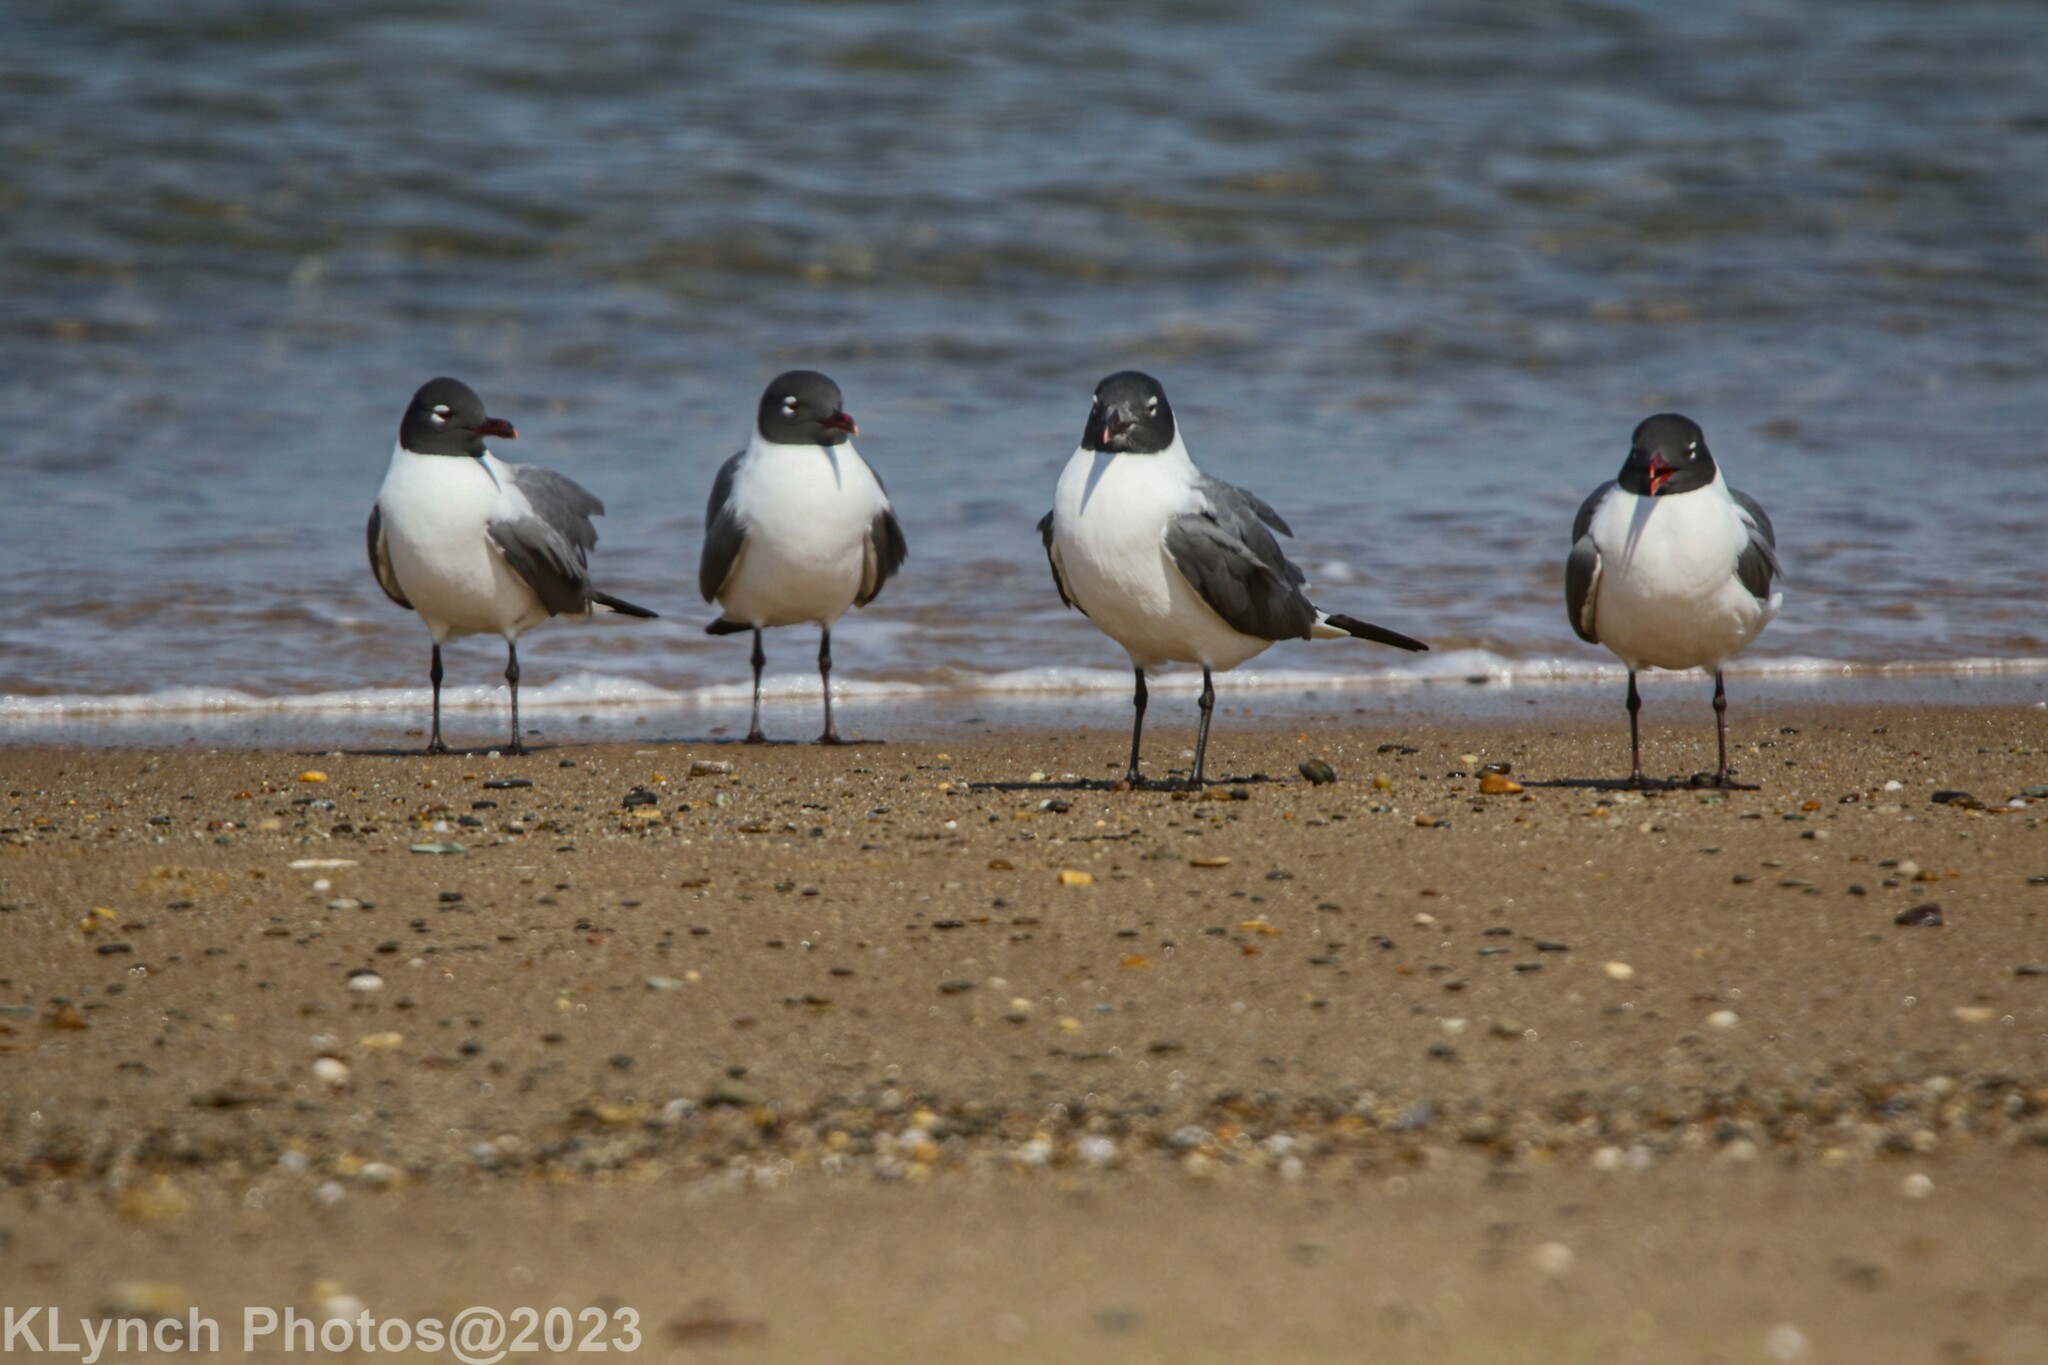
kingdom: Animalia
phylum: Chordata
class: Aves
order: Charadriiformes
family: Laridae
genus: Leucophaeus
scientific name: Leucophaeus atricilla
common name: Laughing gull
